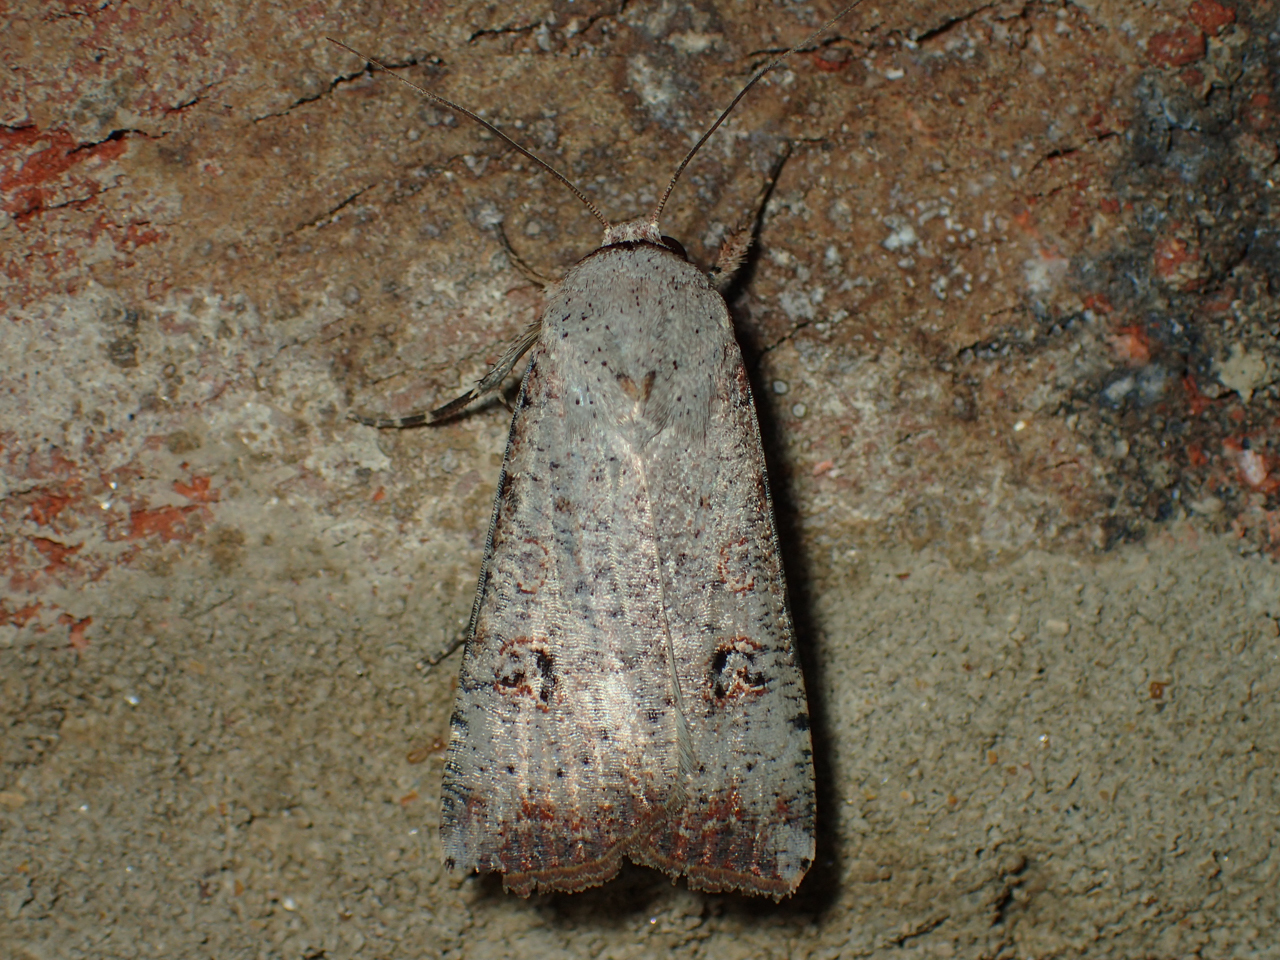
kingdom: Animalia
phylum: Arthropoda
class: Insecta
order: Lepidoptera
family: Noctuidae
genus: Anicla
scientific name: Anicla infecta
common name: Green cutworm
